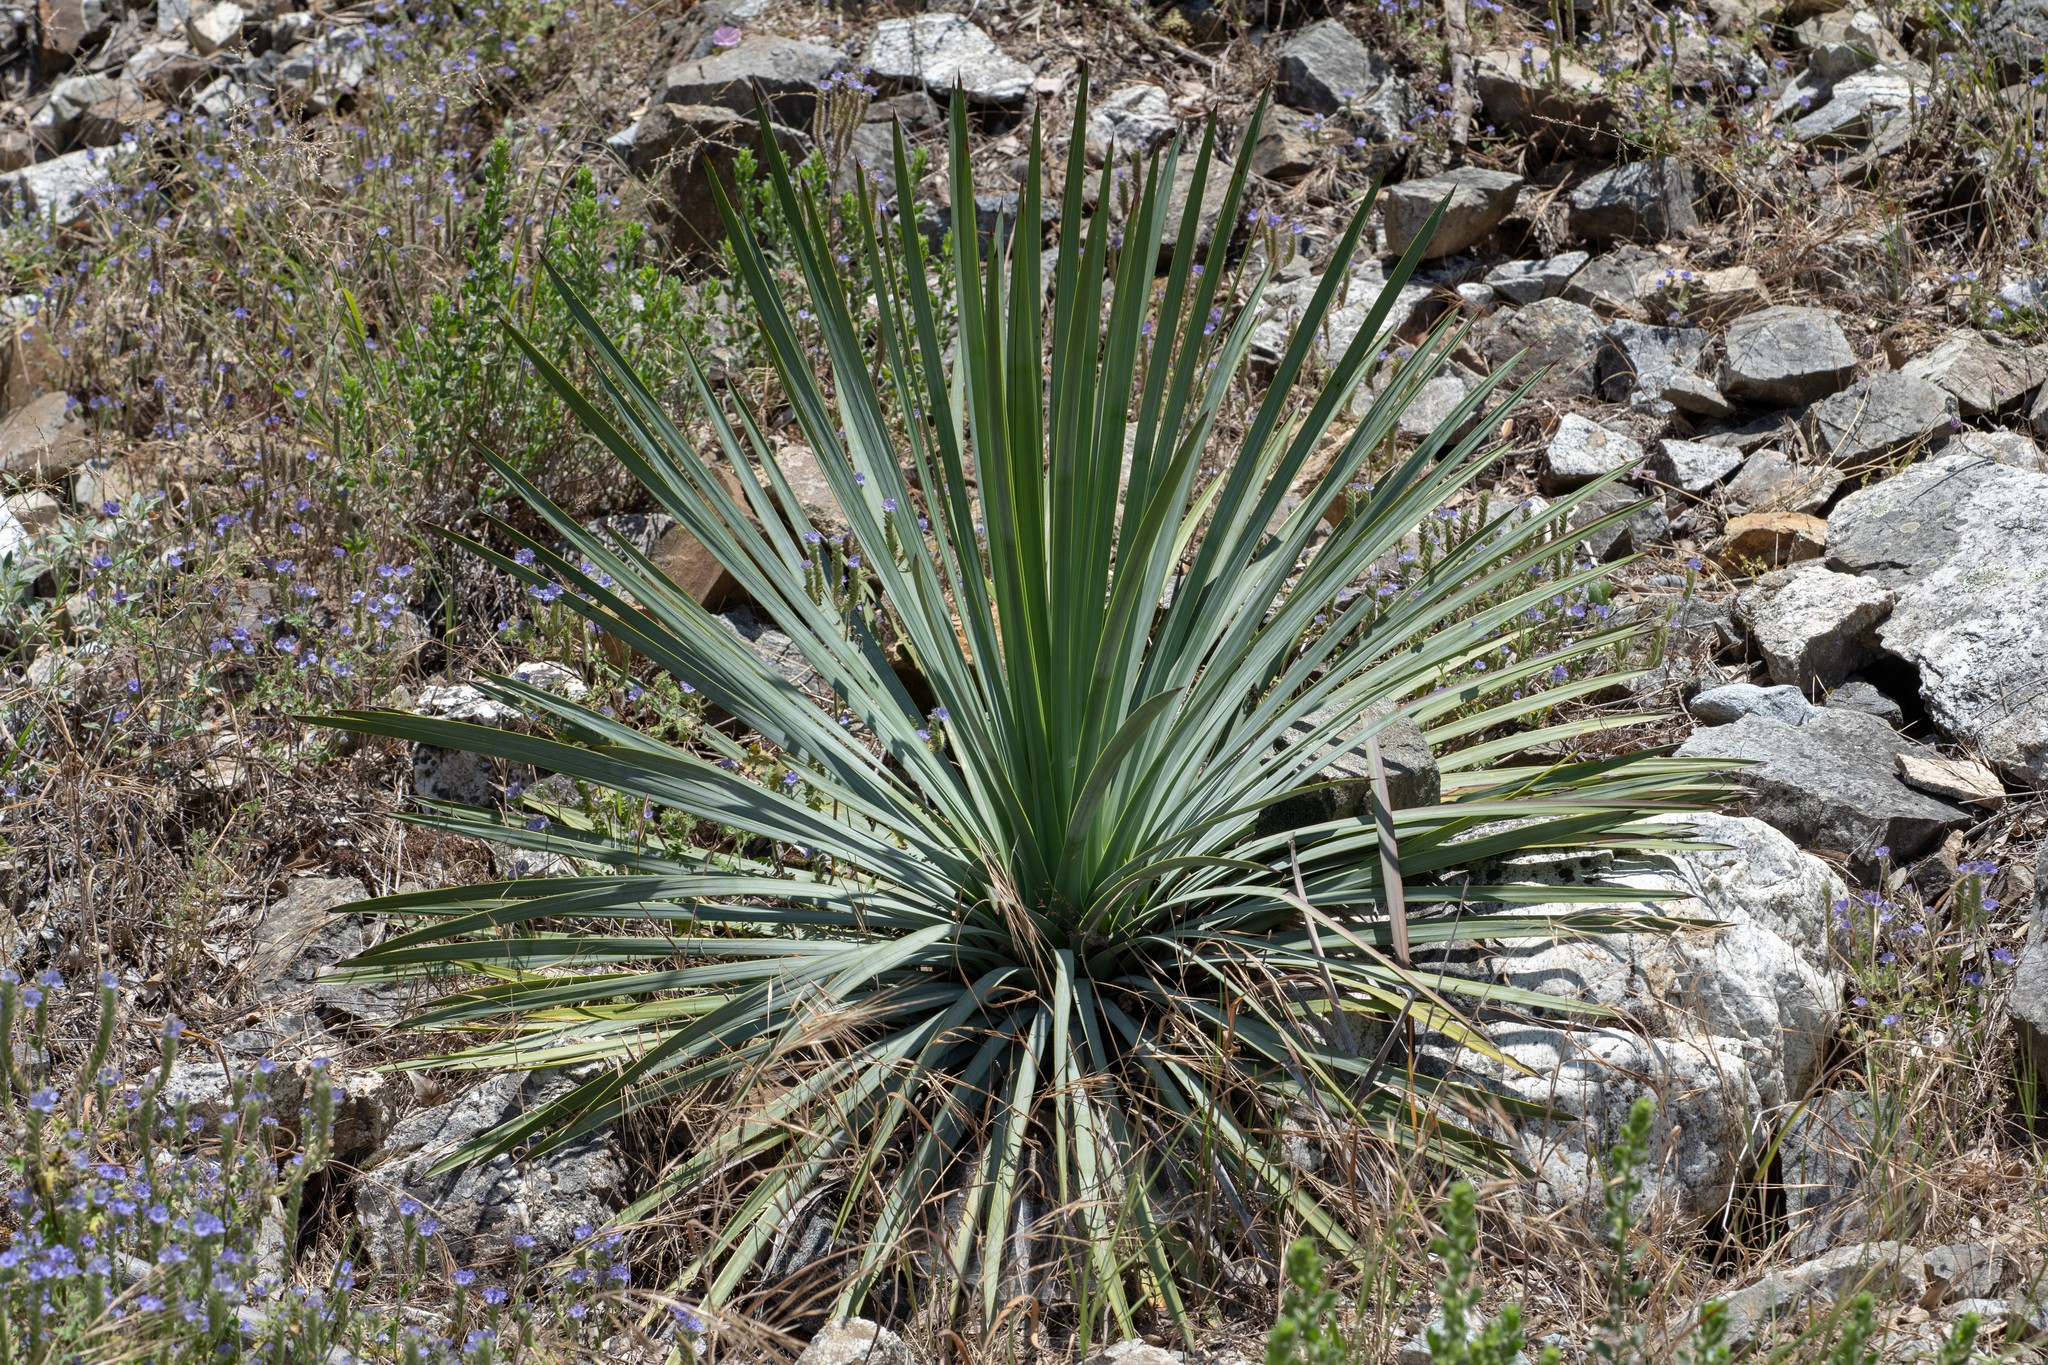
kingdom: Plantae
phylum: Tracheophyta
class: Liliopsida
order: Asparagales
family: Asparagaceae
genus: Hesperoyucca
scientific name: Hesperoyucca whipplei
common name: Our lord's-candle
